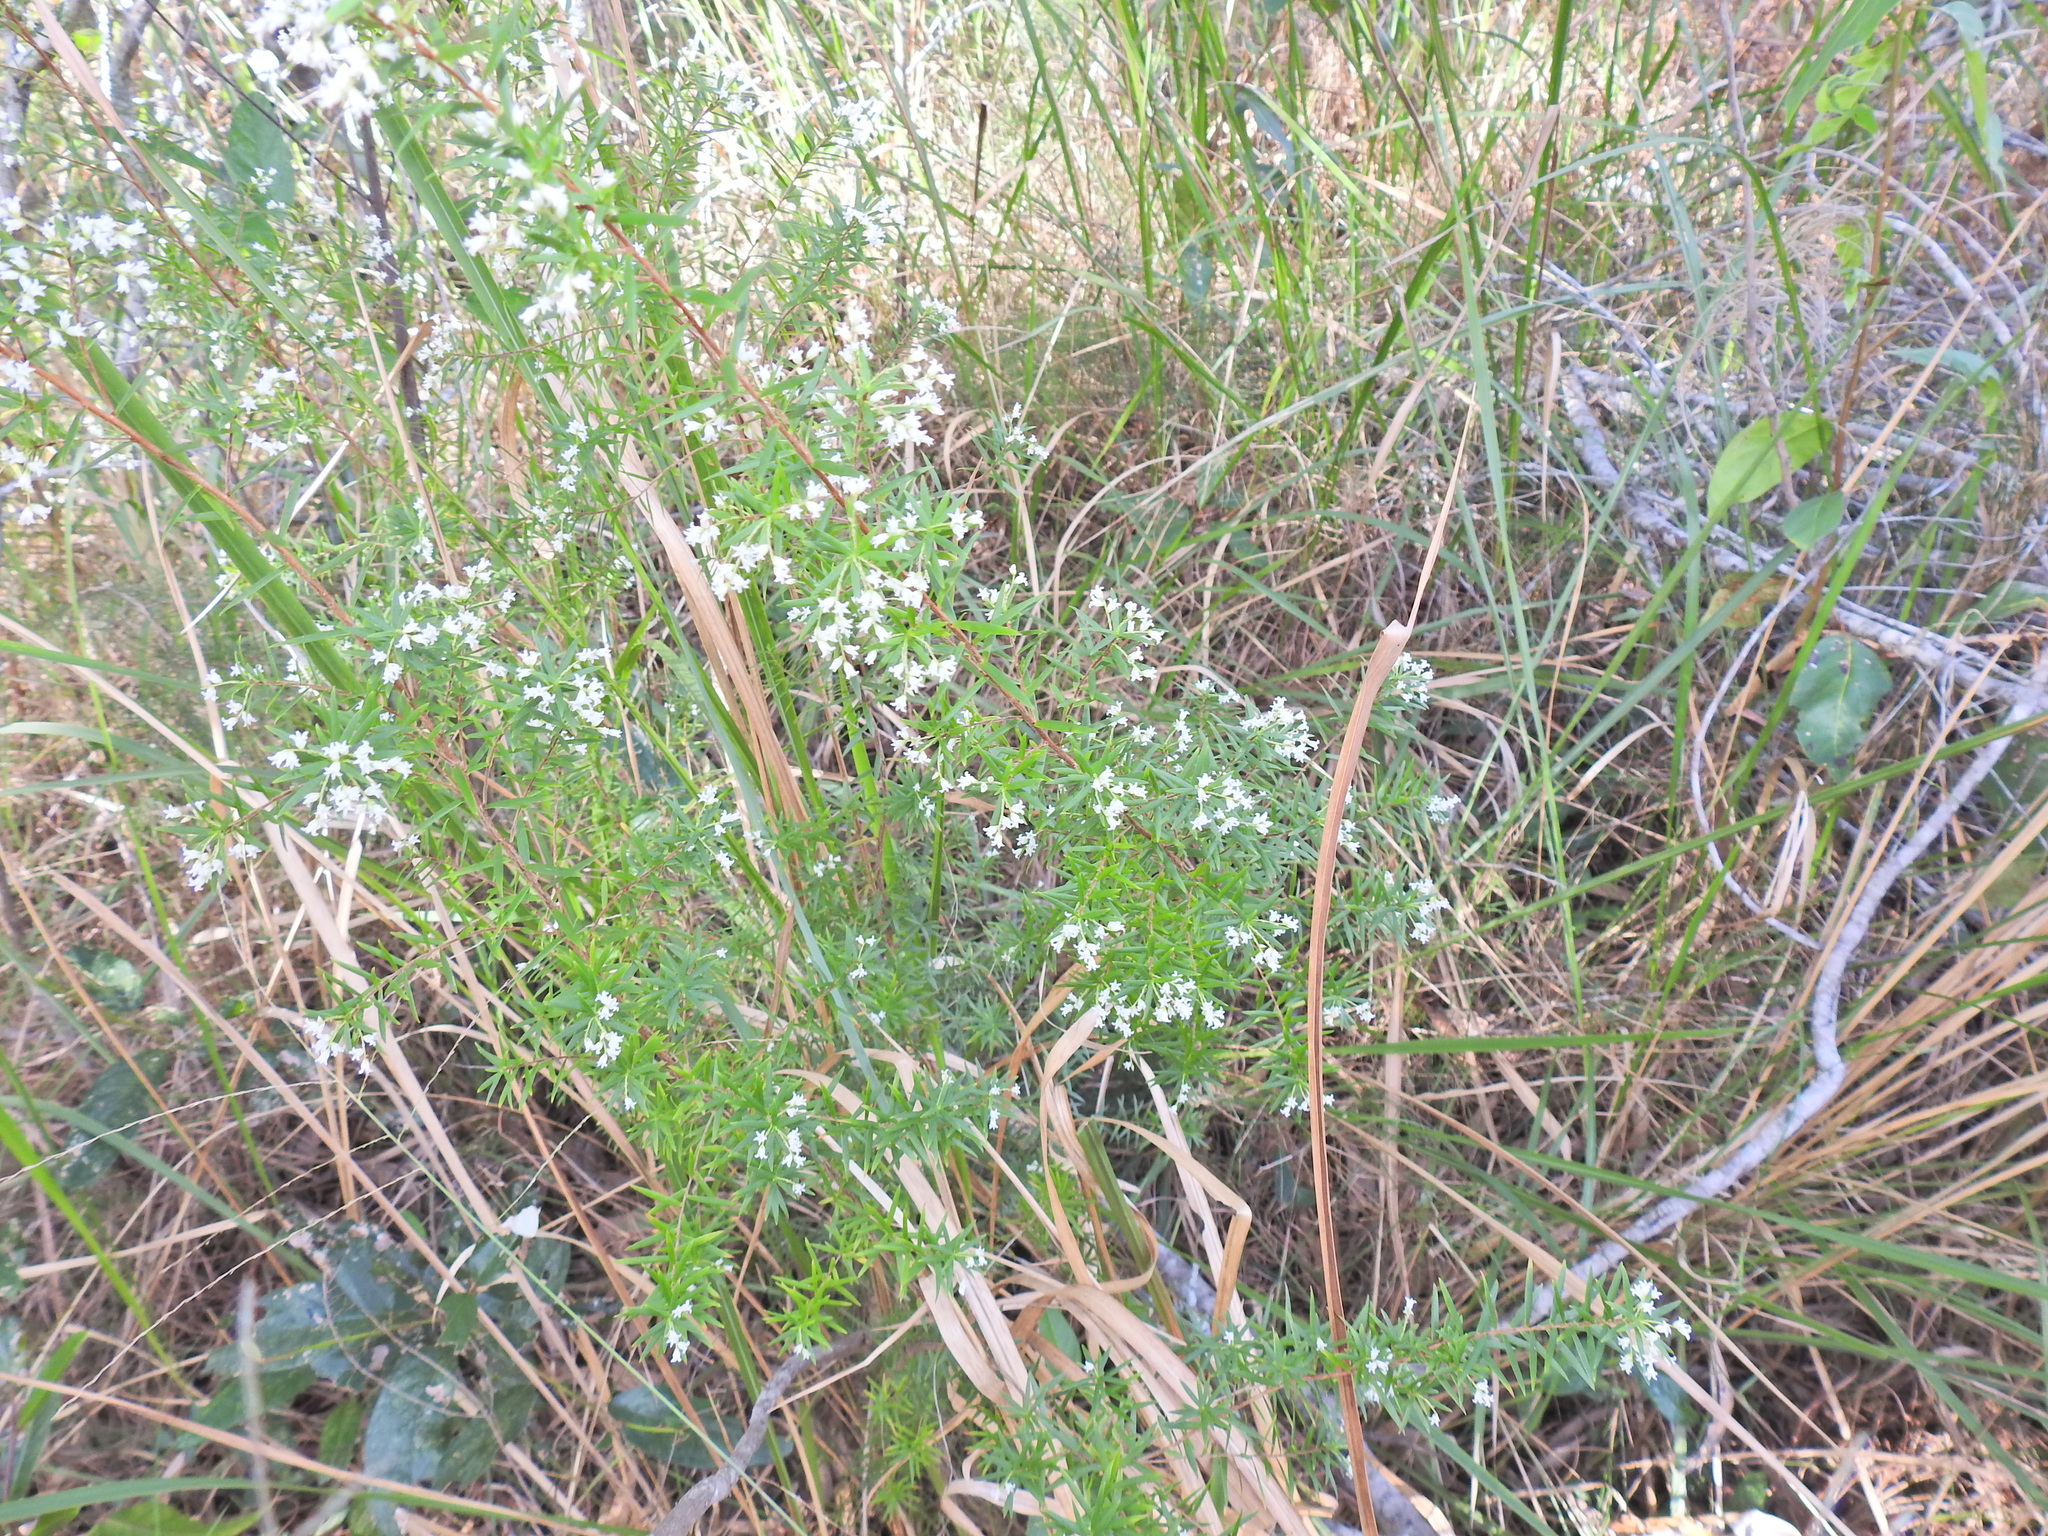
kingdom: Plantae
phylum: Tracheophyta
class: Magnoliopsida
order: Ericales
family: Ericaceae
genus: Leucopogon
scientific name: Leucopogon pimeleoides
